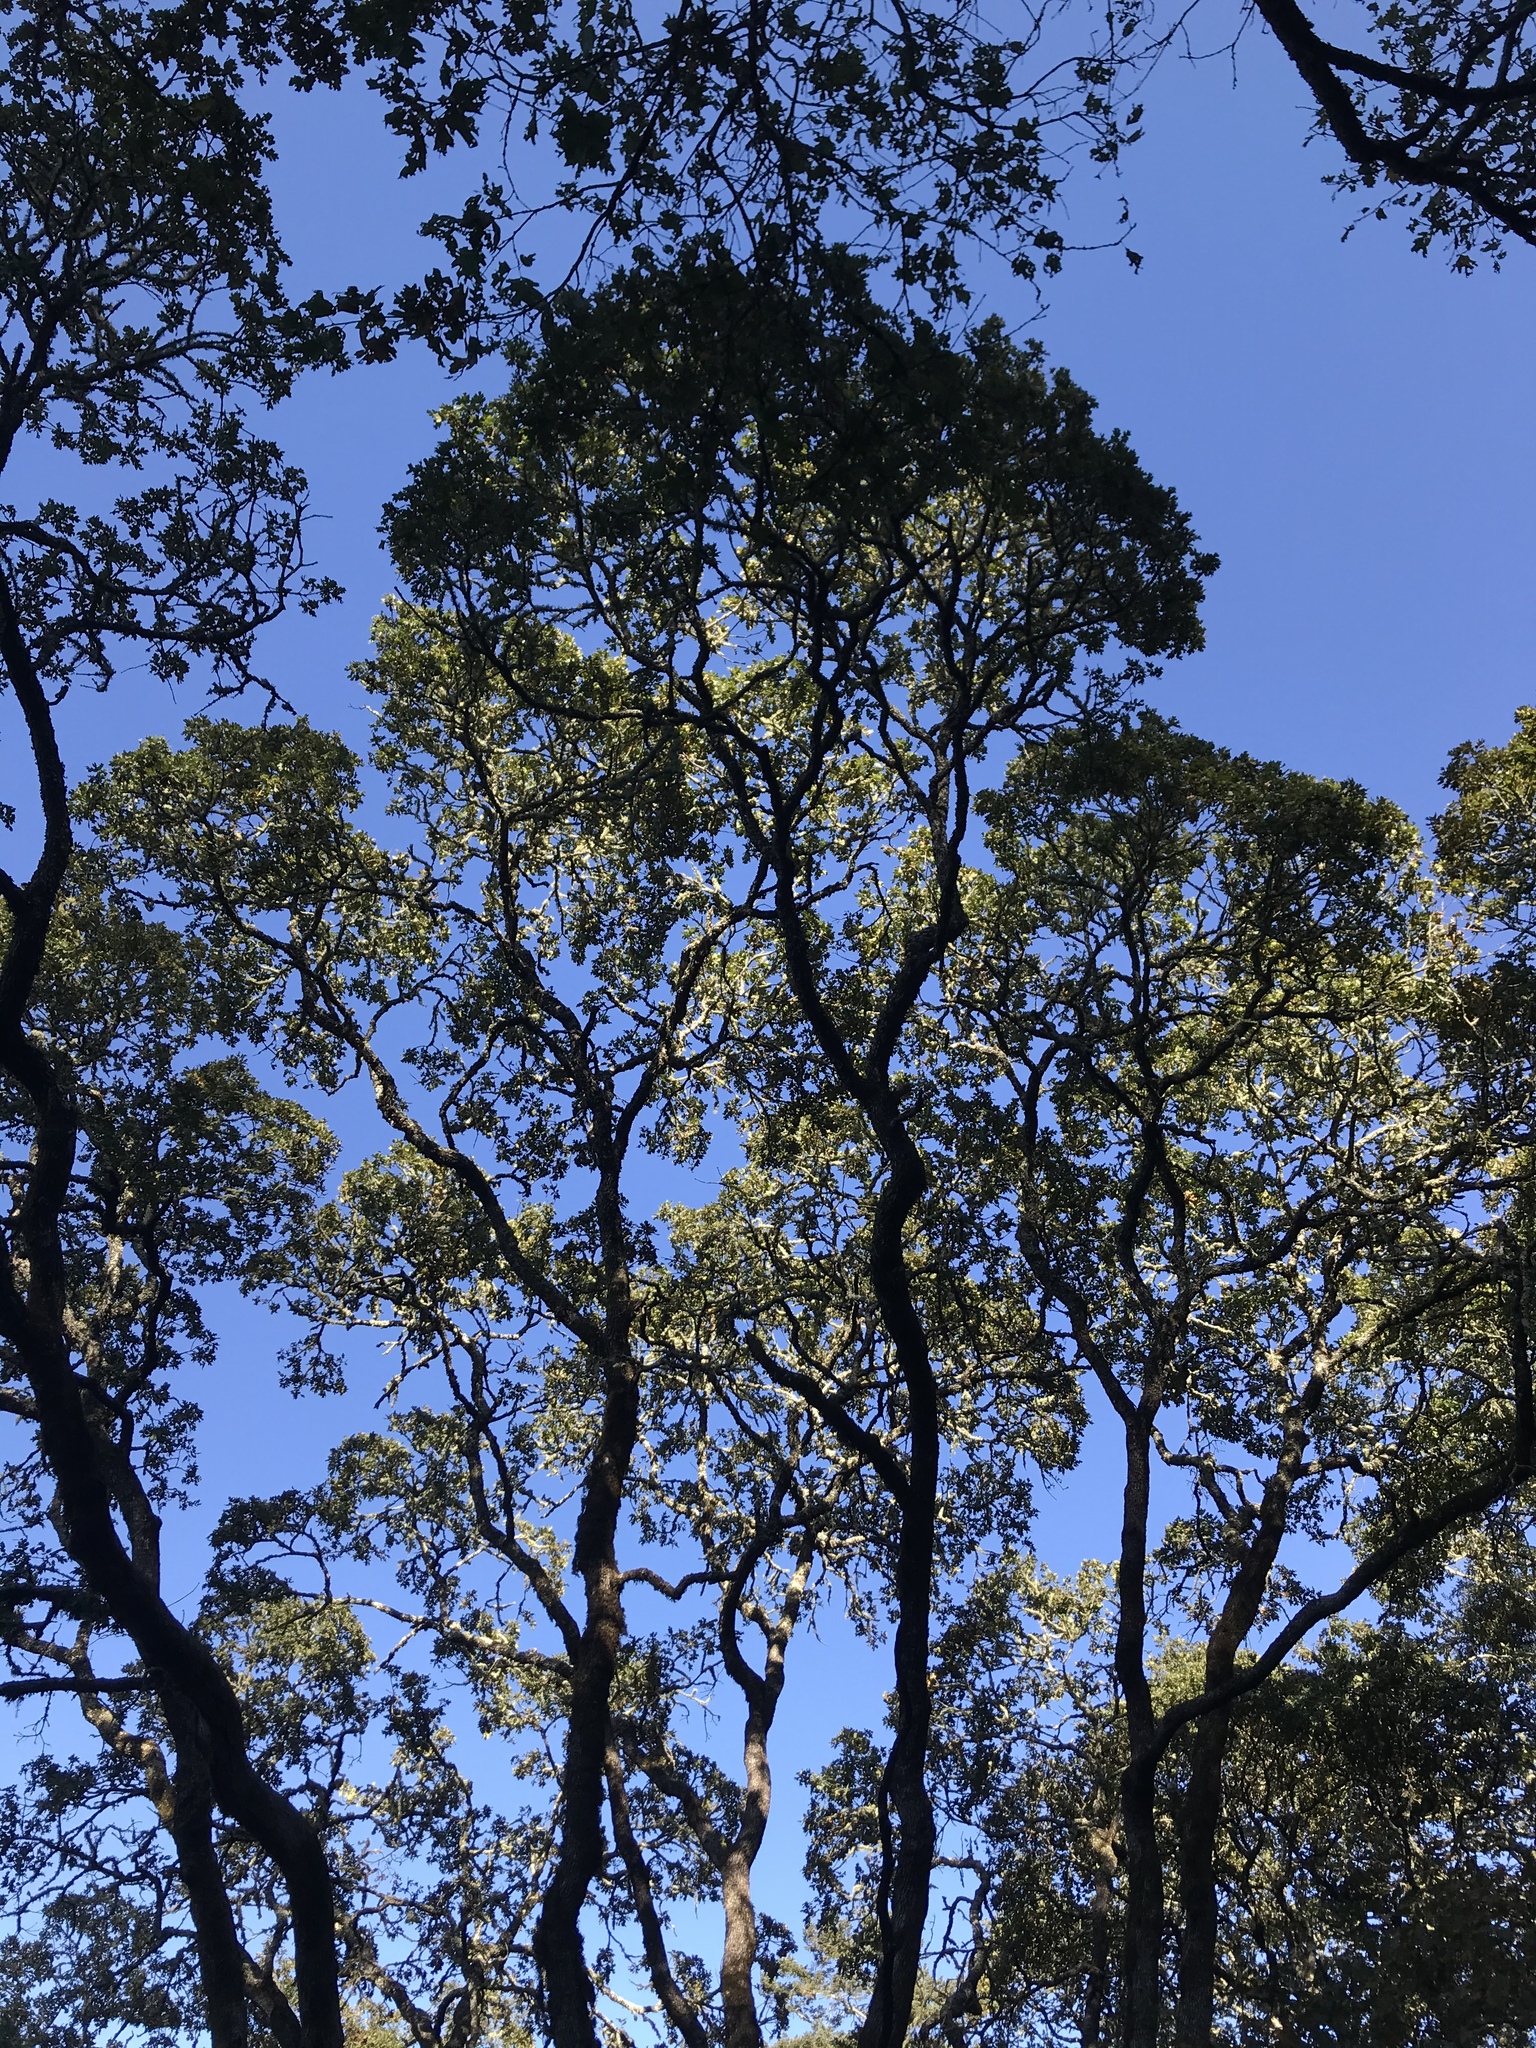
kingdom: Plantae
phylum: Tracheophyta
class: Magnoliopsida
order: Fagales
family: Fagaceae
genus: Quercus
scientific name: Quercus garryana
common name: Garry oak
